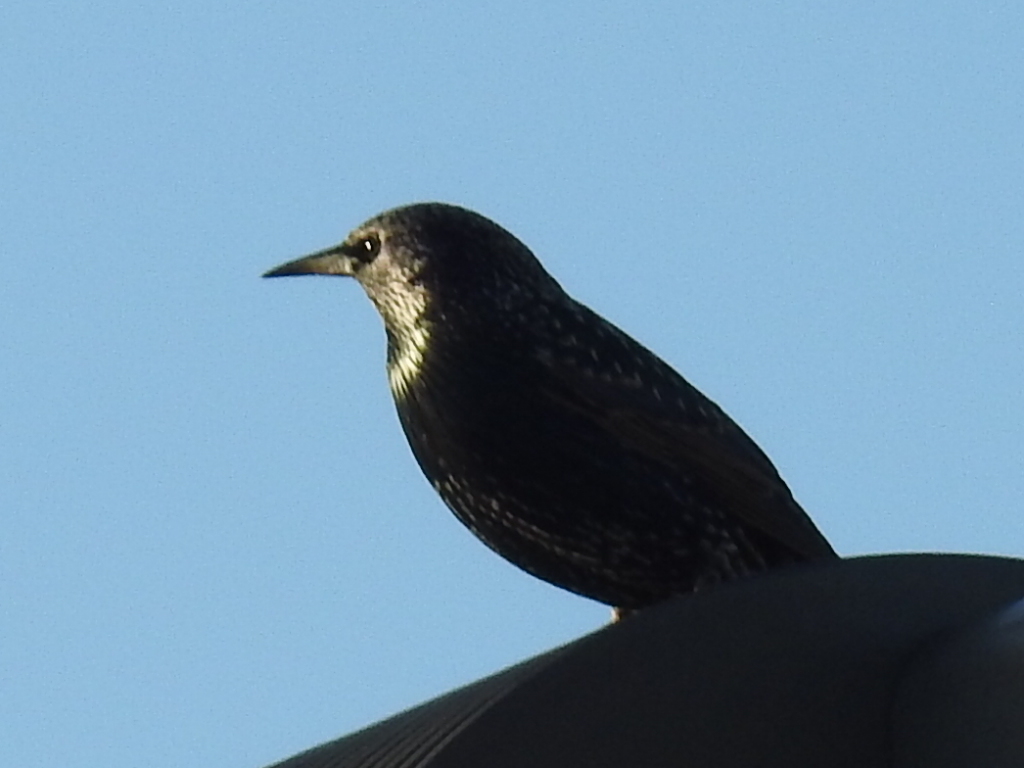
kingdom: Animalia
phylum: Chordata
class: Aves
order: Passeriformes
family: Sturnidae
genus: Sturnus
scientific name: Sturnus vulgaris
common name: Common starling
